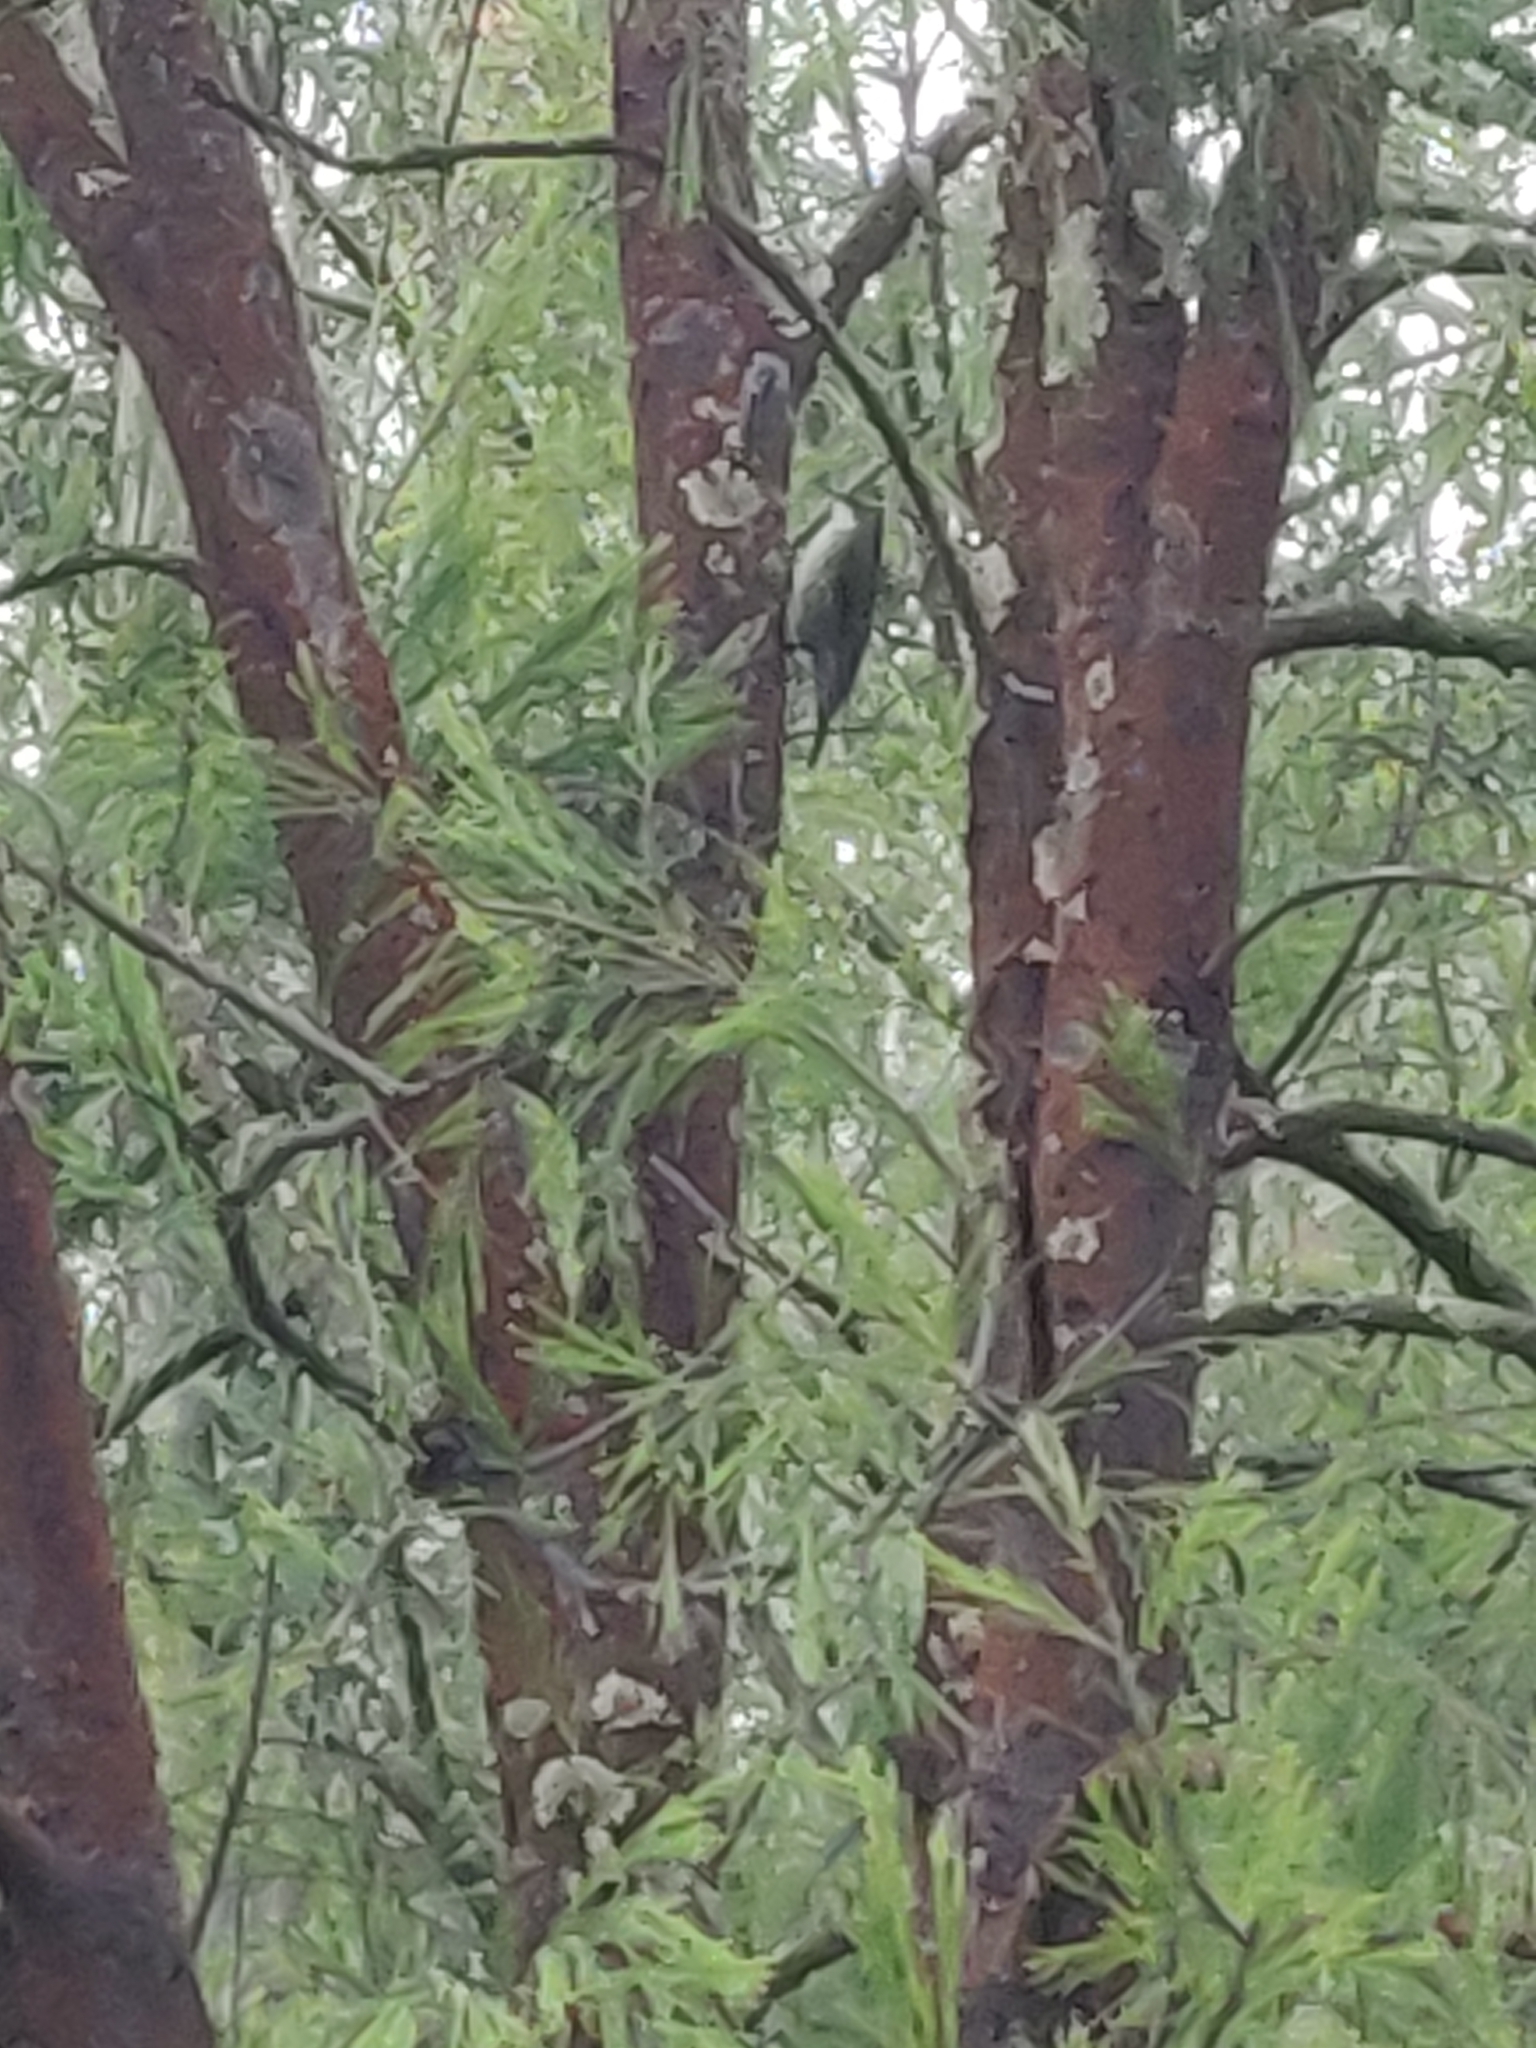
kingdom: Animalia
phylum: Chordata
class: Aves
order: Passeriformes
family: Climacteridae
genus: Cormobates
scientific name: Cormobates leucophaea
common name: White-throated treecreeper
